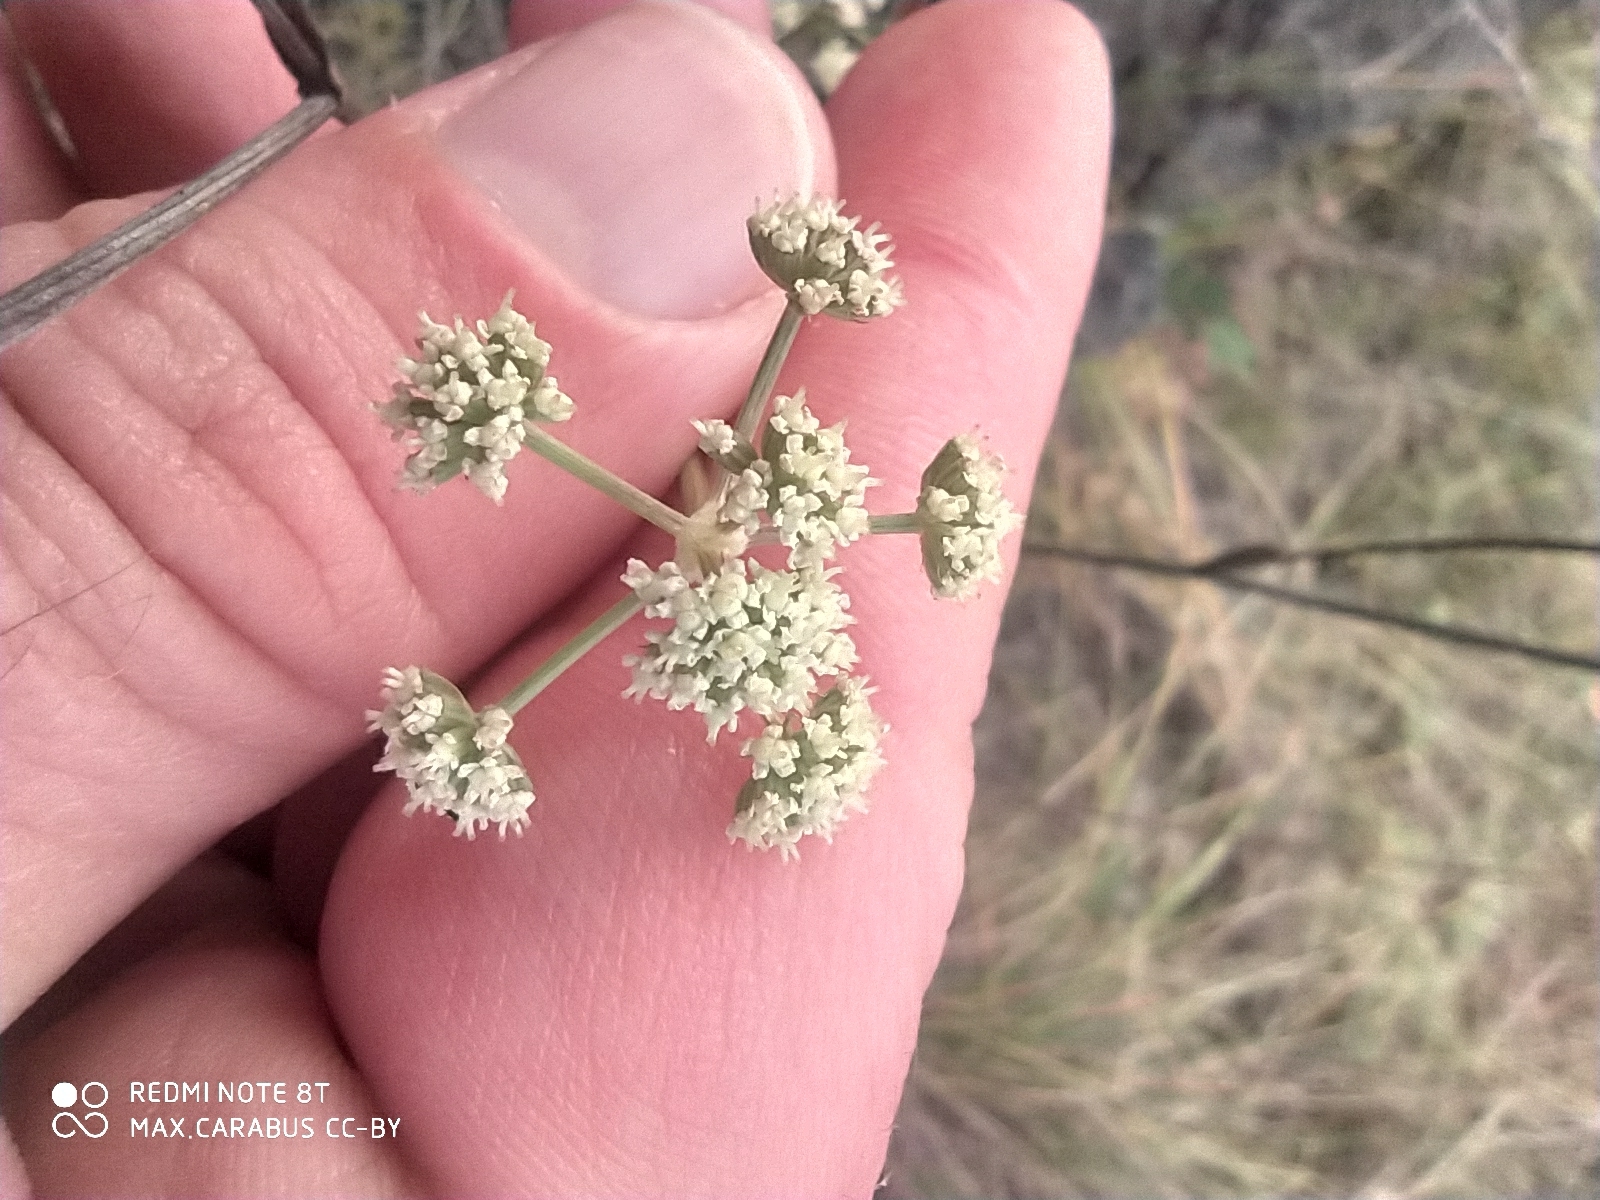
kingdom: Plantae
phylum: Tracheophyta
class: Magnoliopsida
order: Apiales
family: Apiaceae
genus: Seseli
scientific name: Seseli ledebourii
